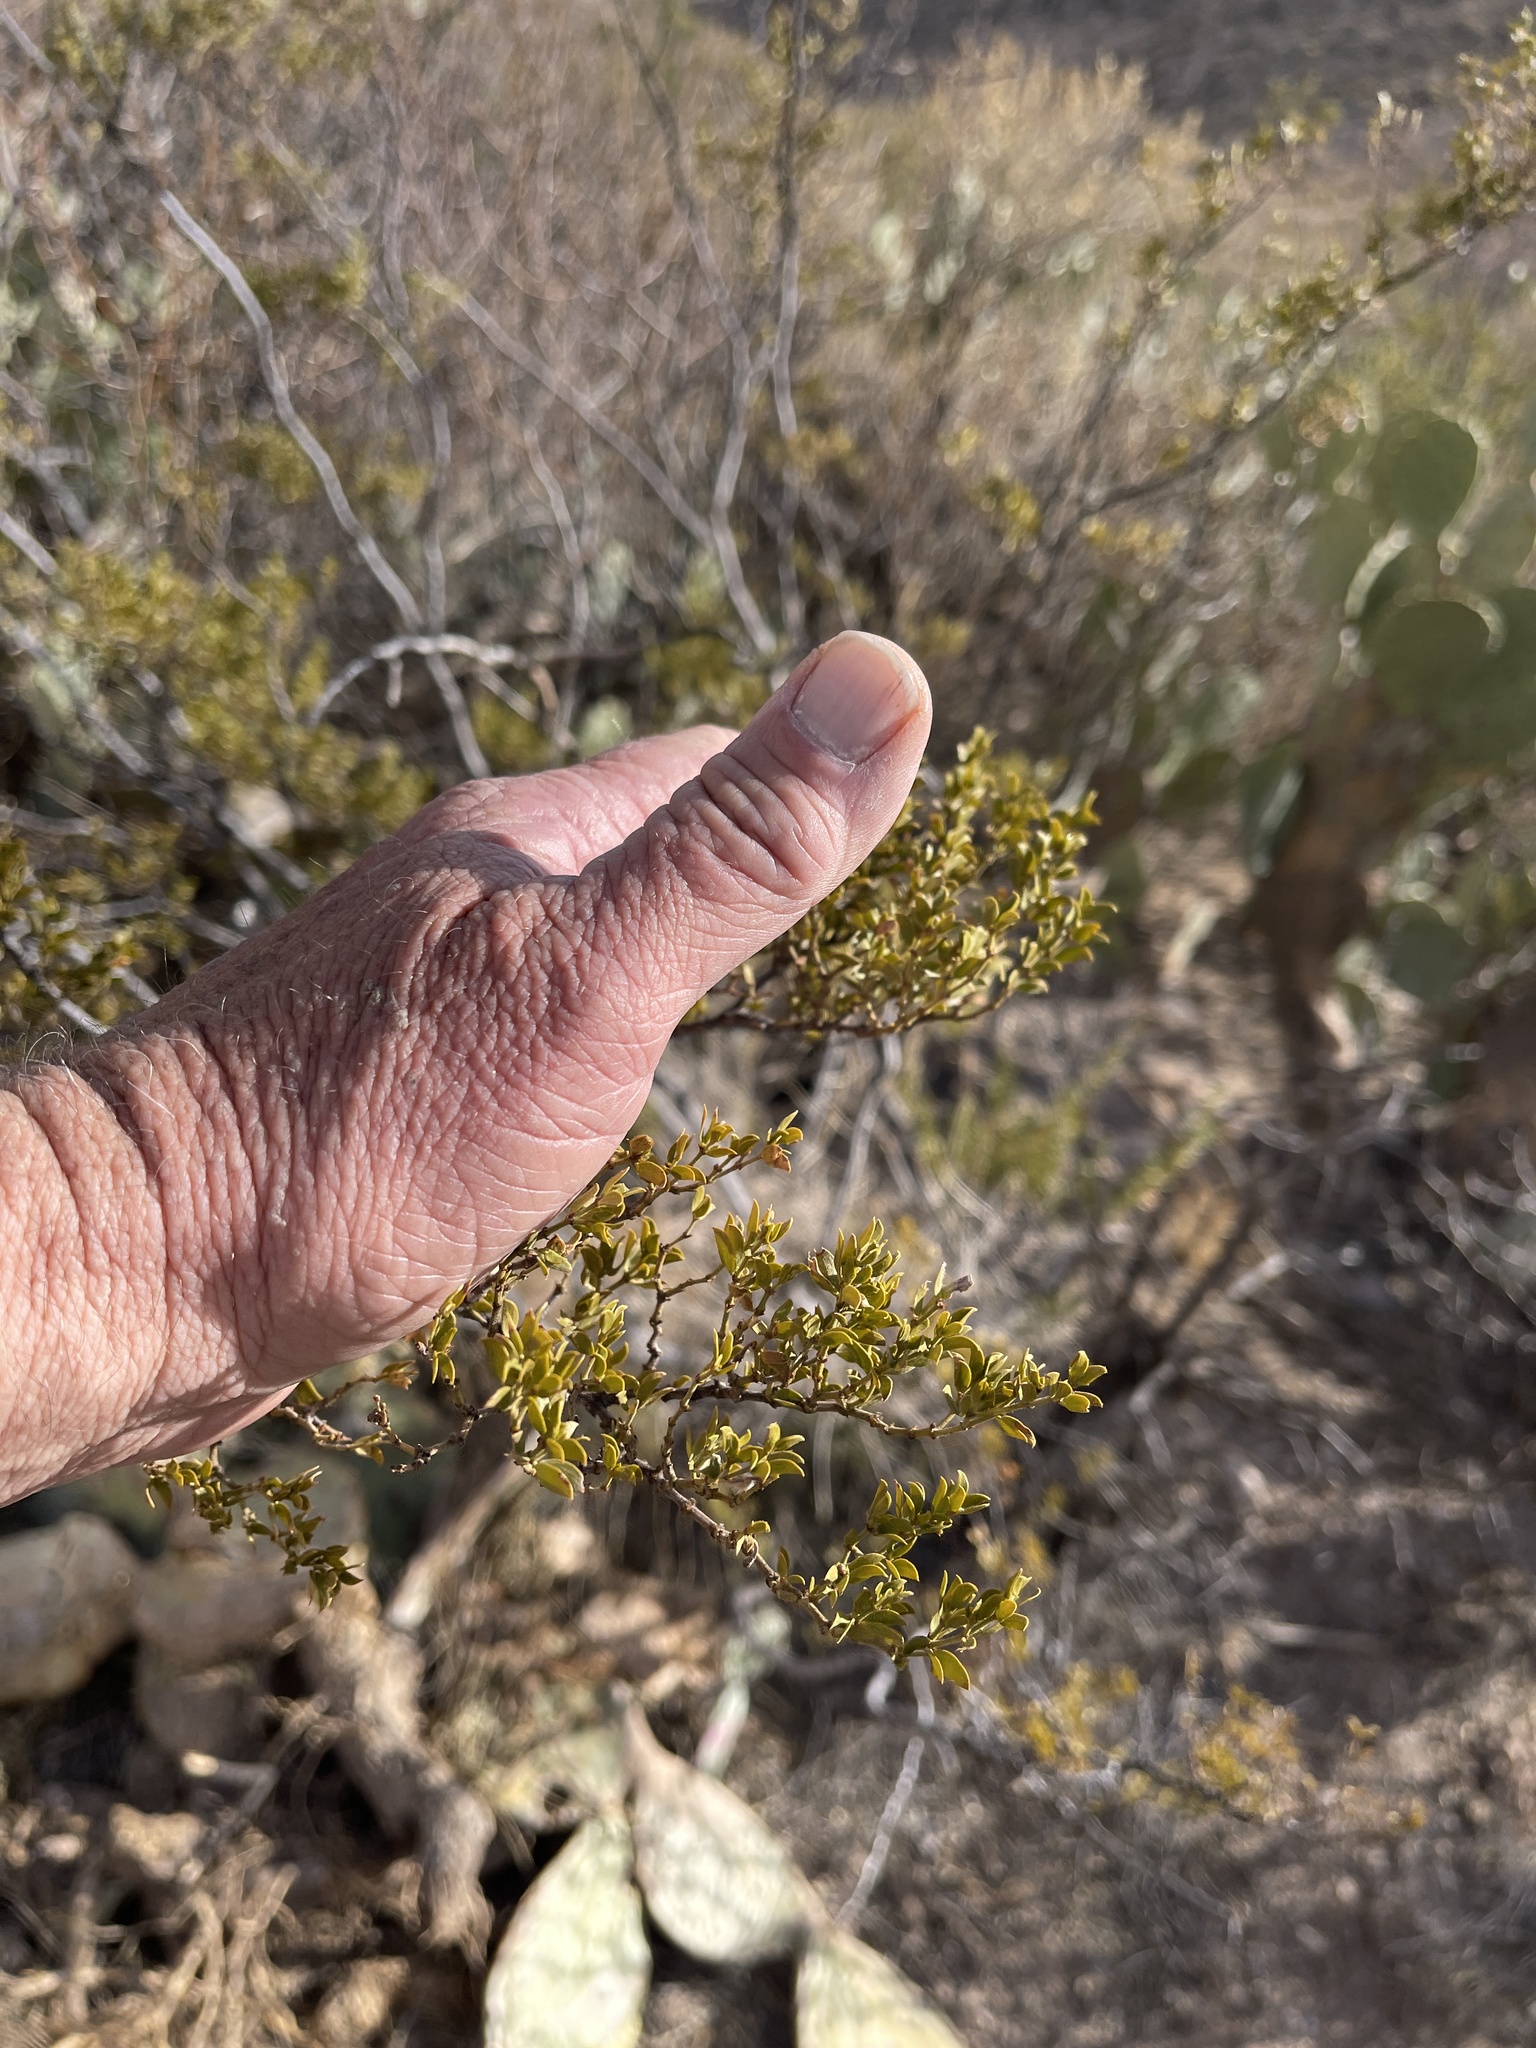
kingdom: Plantae
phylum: Tracheophyta
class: Magnoliopsida
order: Zygophyllales
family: Zygophyllaceae
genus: Larrea
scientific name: Larrea tridentata
